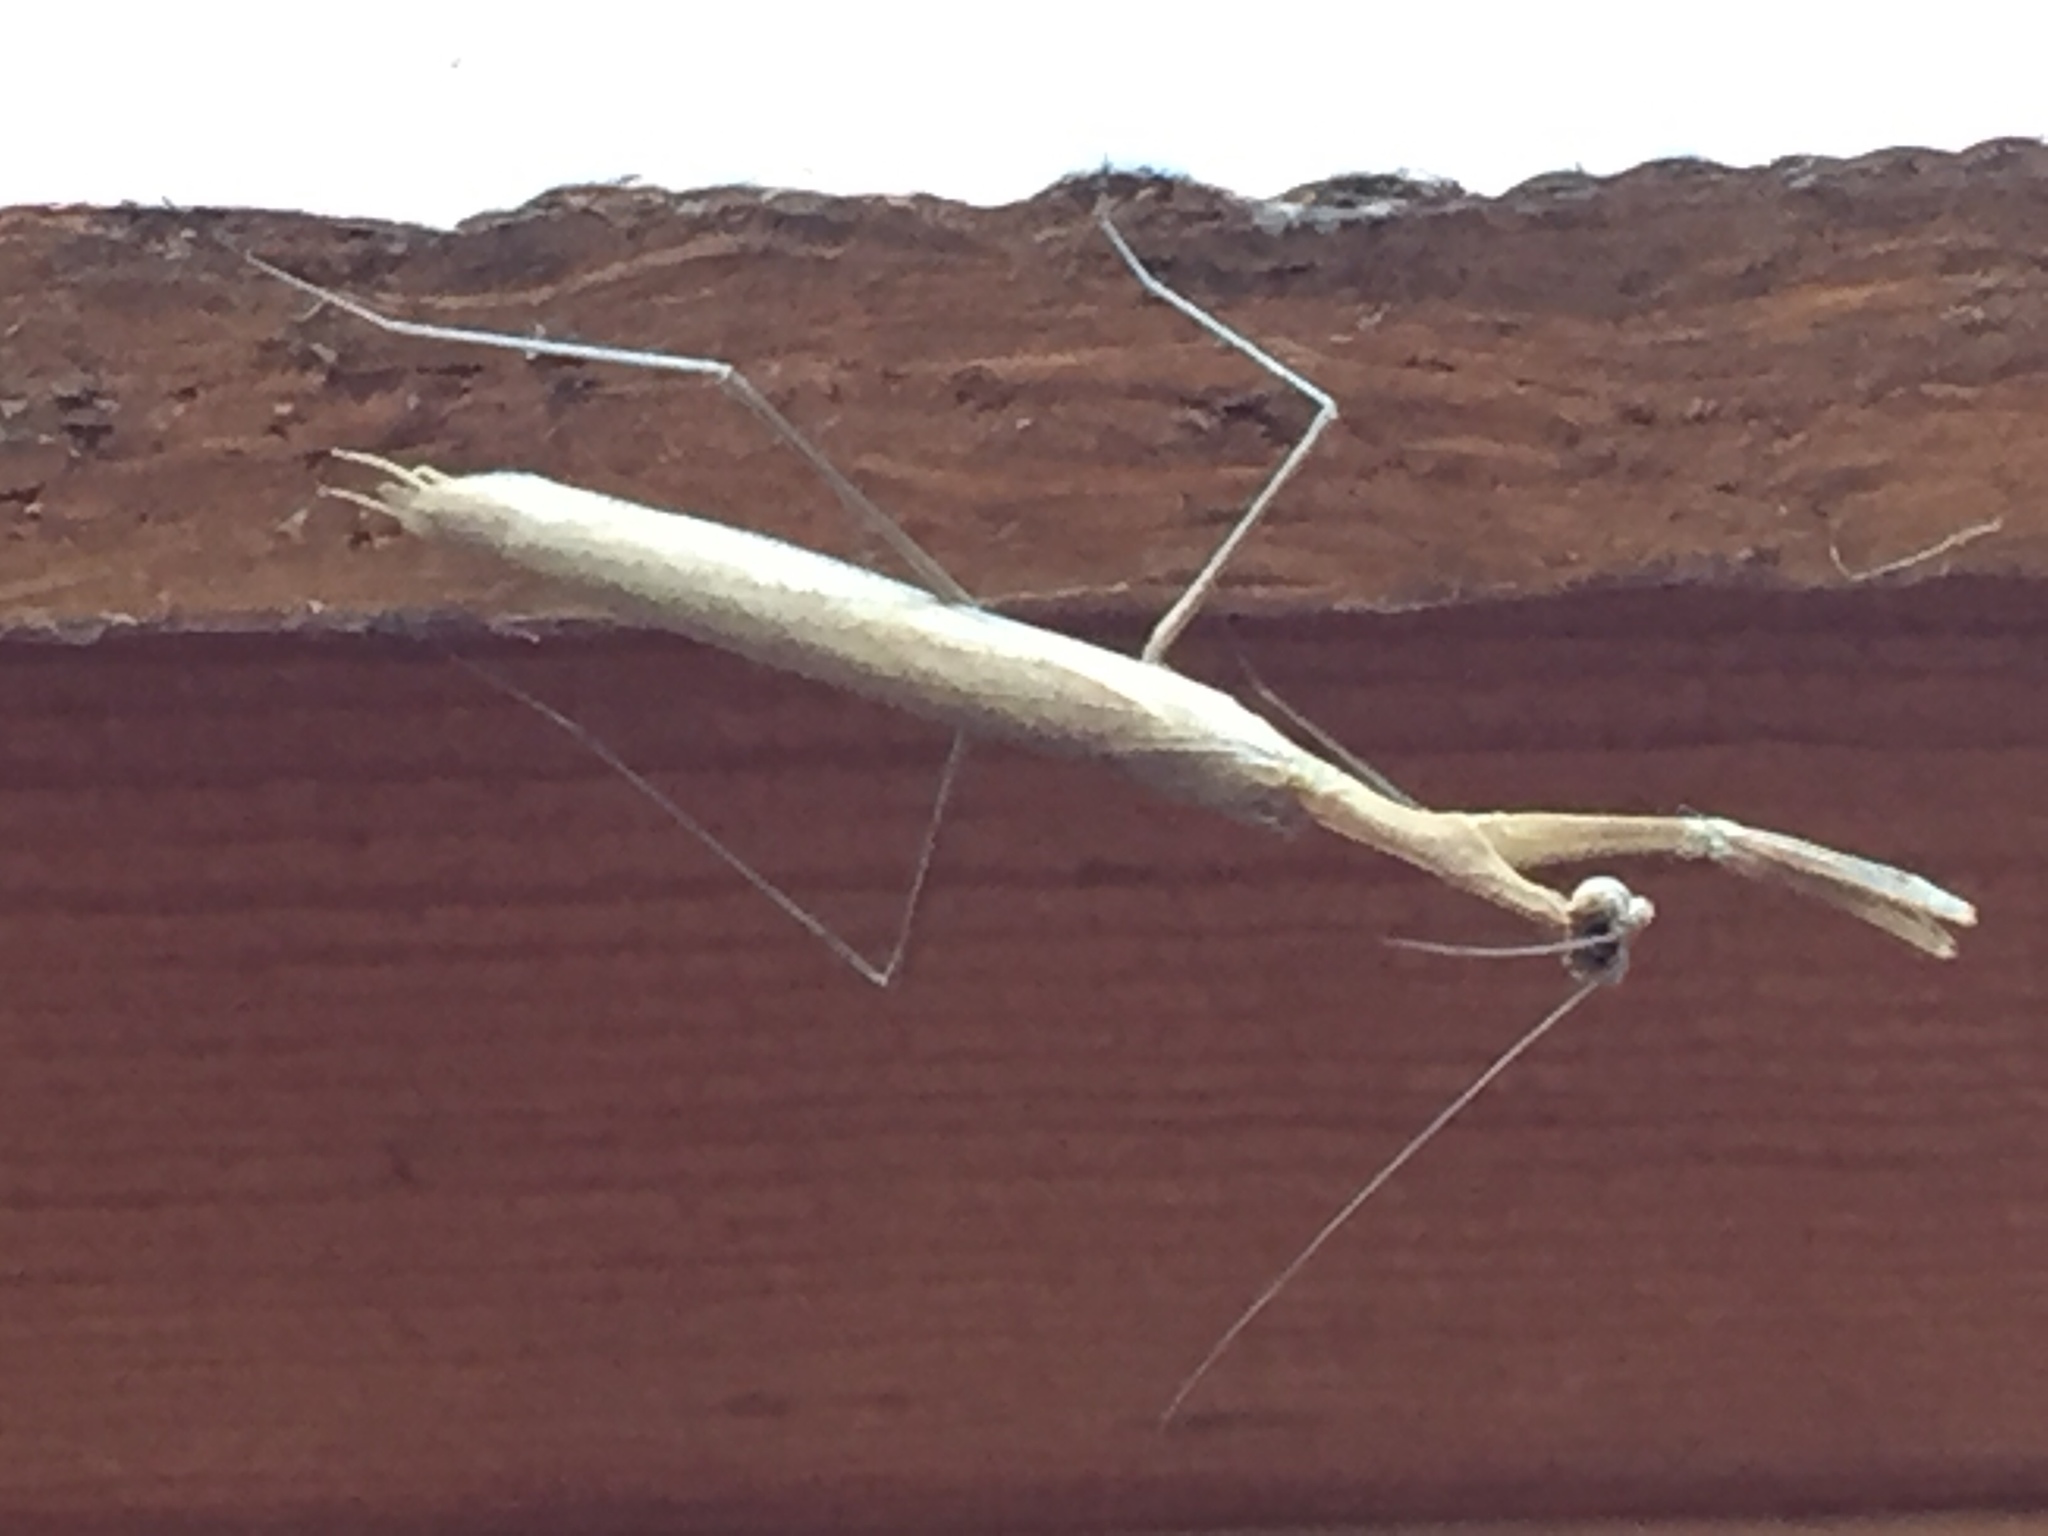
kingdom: Animalia
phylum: Arthropoda
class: Insecta
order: Mantodea
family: Thespidae
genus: Thesprotia
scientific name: Thesprotia graminis
